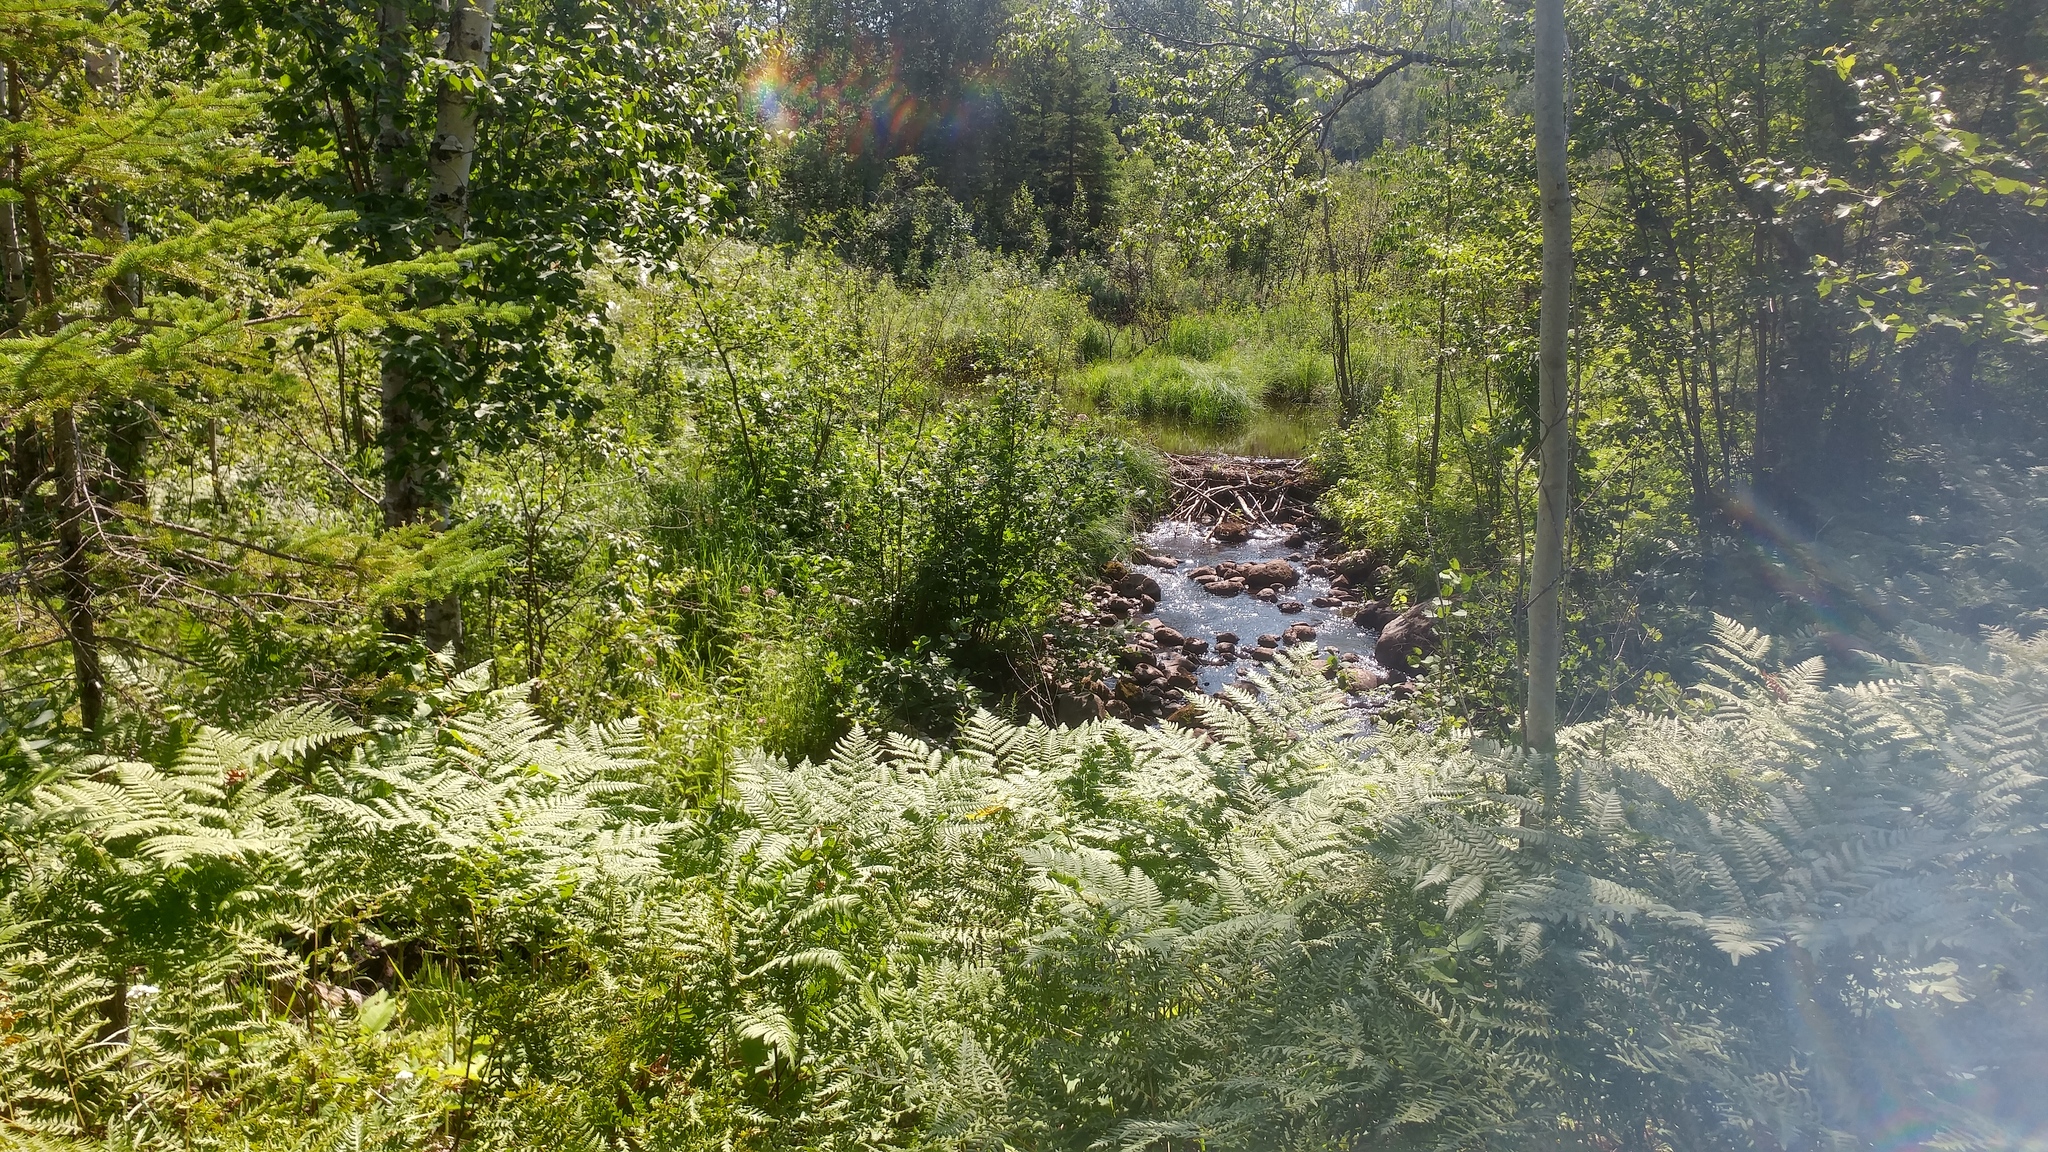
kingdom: Plantae
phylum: Tracheophyta
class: Polypodiopsida
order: Polypodiales
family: Dennstaedtiaceae
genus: Pteridium
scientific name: Pteridium aquilinum
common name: Bracken
